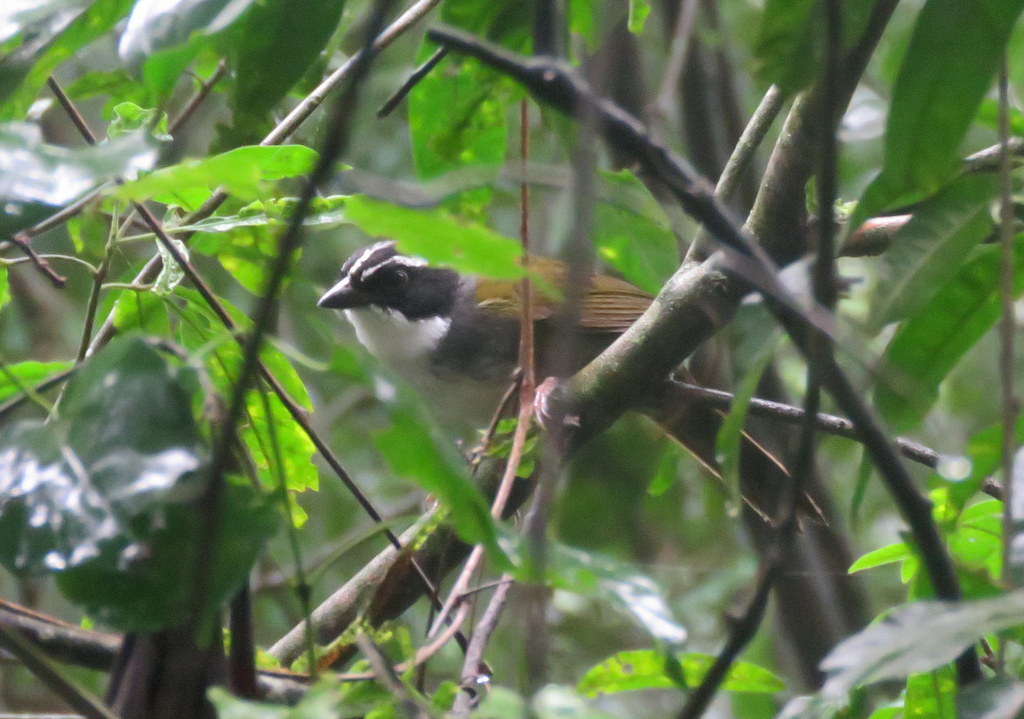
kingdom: Animalia
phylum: Chordata
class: Aves
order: Passeriformes
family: Passerellidae
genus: Arremon
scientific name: Arremon torquatus
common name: White-browed brushfinch
